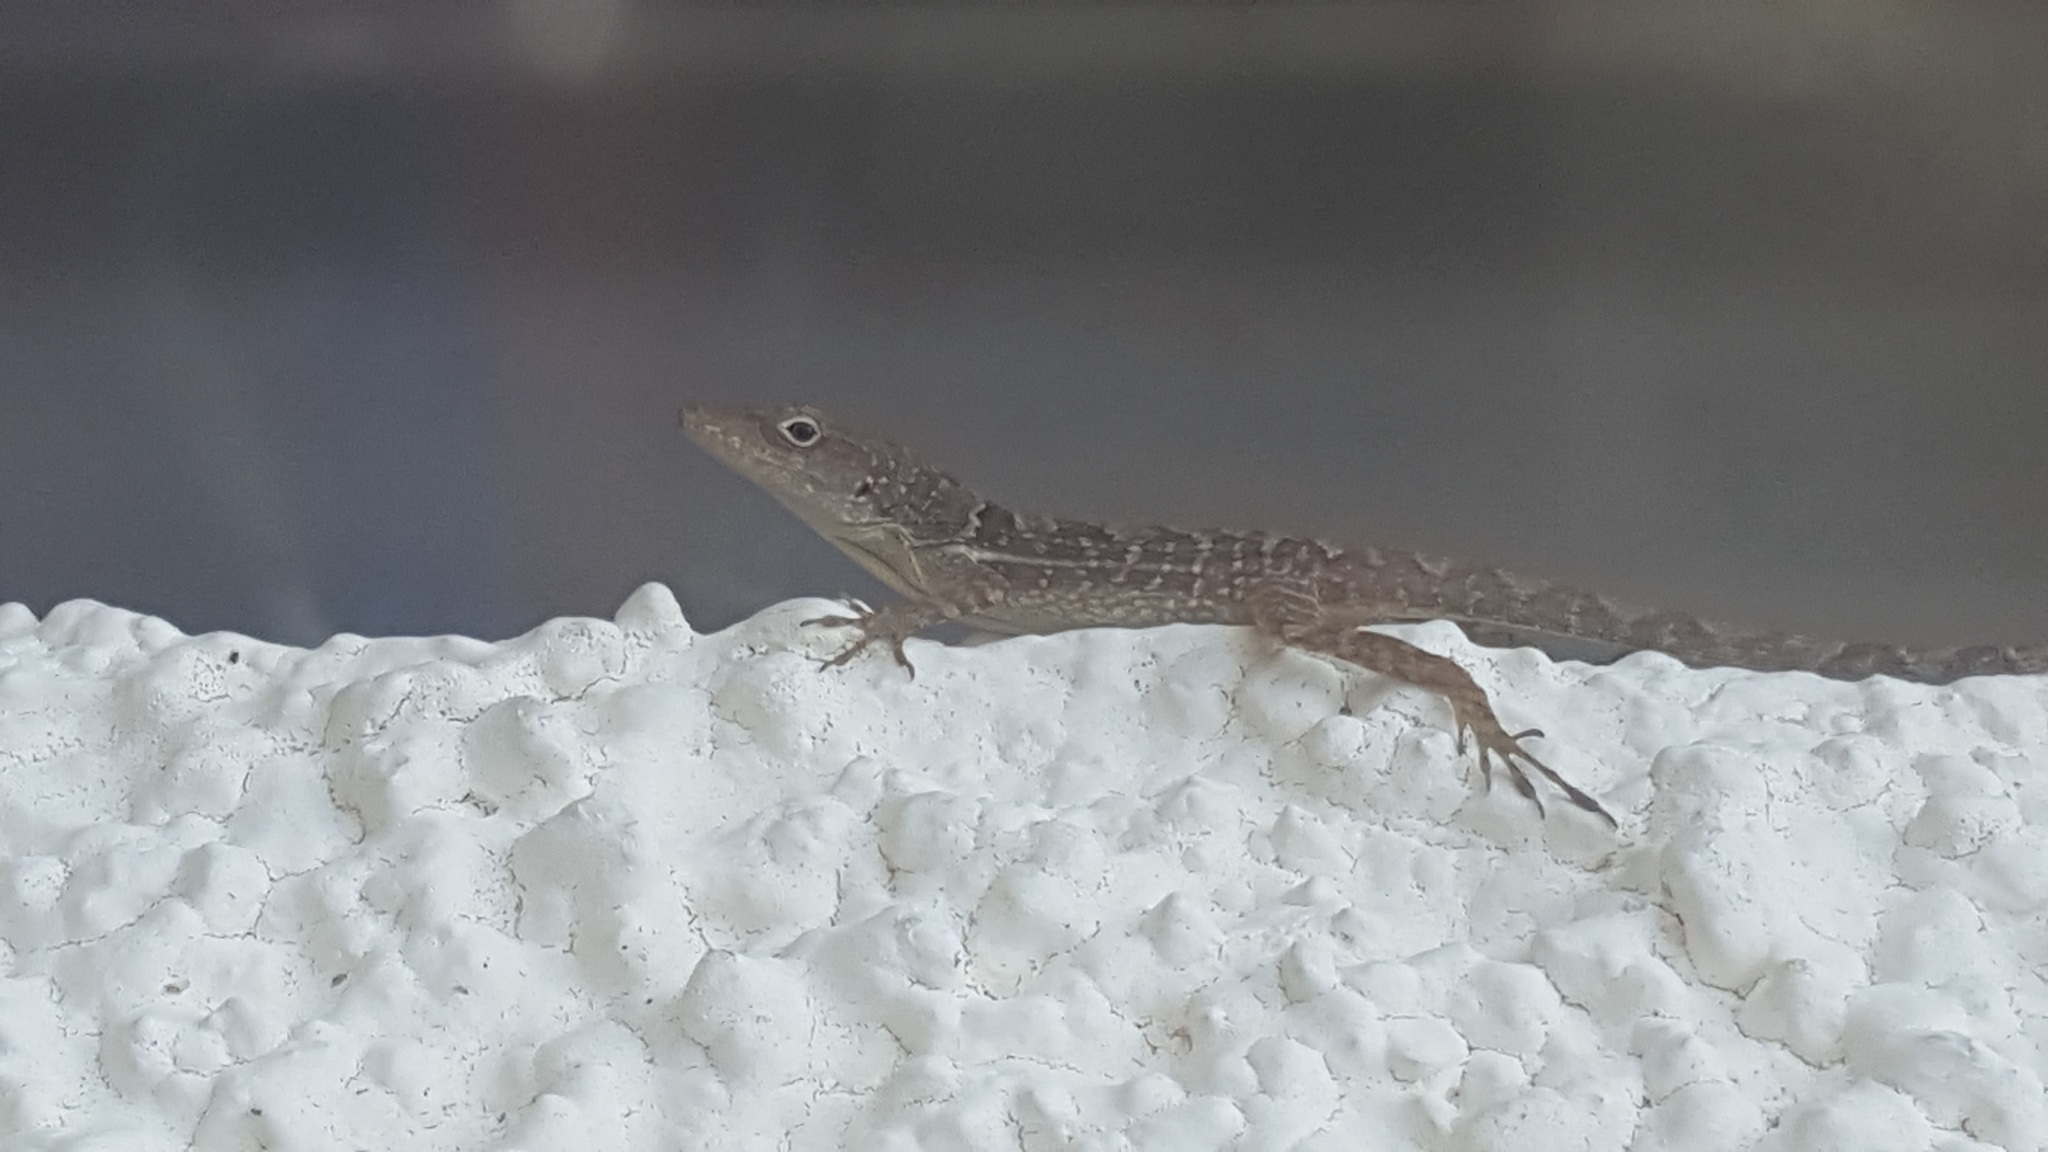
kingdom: Animalia
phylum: Chordata
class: Squamata
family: Dactyloidae
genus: Anolis
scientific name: Anolis lineatopus
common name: Stripefoot anole
